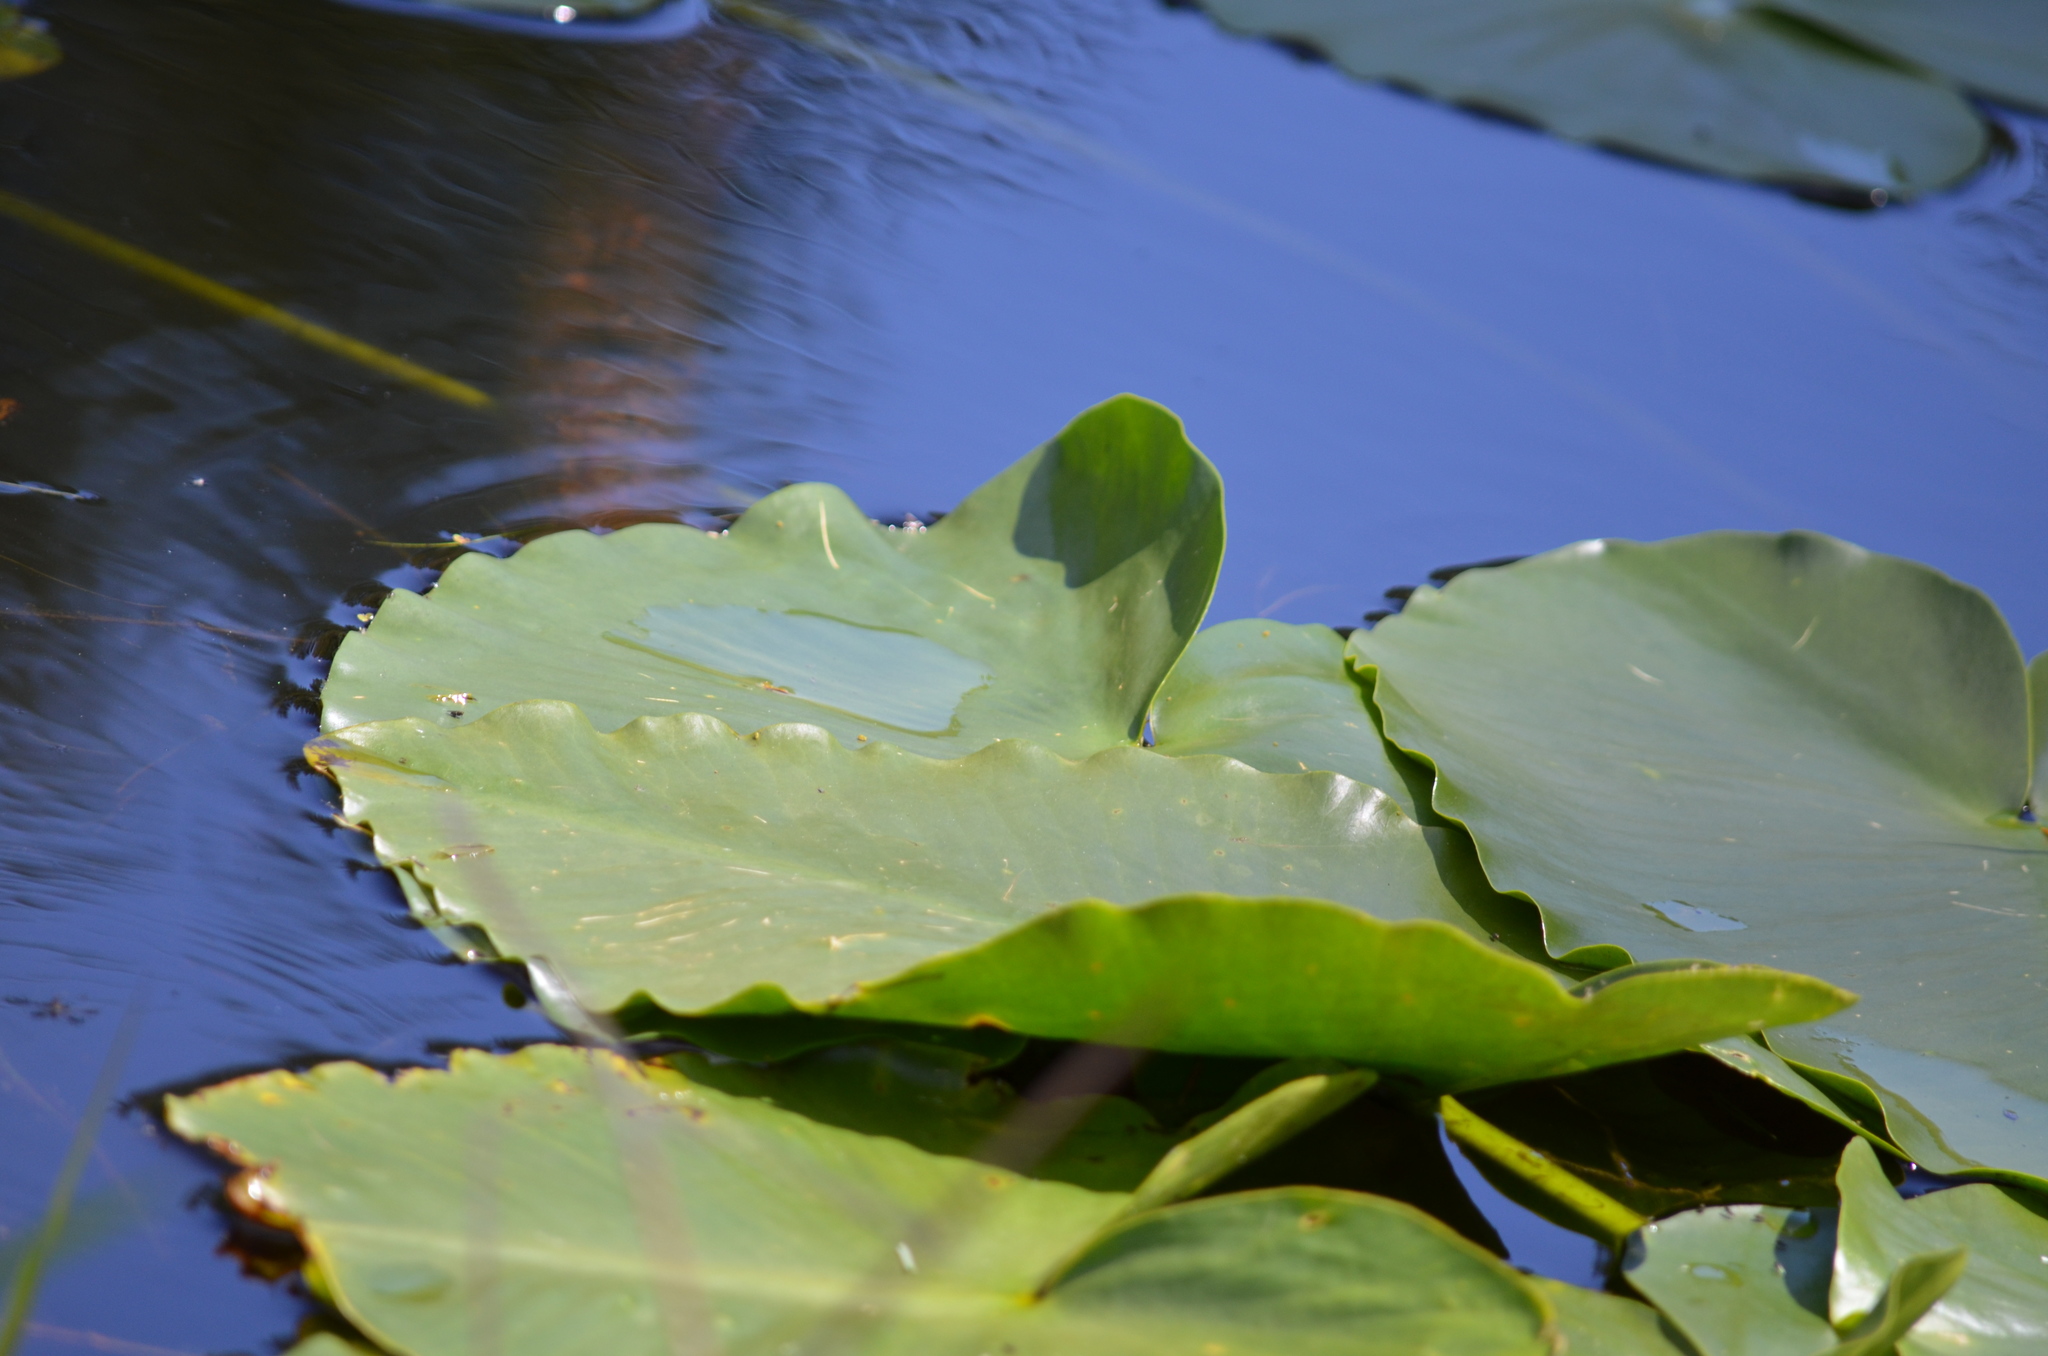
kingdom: Plantae
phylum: Tracheophyta
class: Magnoliopsida
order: Nymphaeales
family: Nymphaeaceae
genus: Nuphar
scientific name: Nuphar polysepala
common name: Rocky mountain cow-lily
